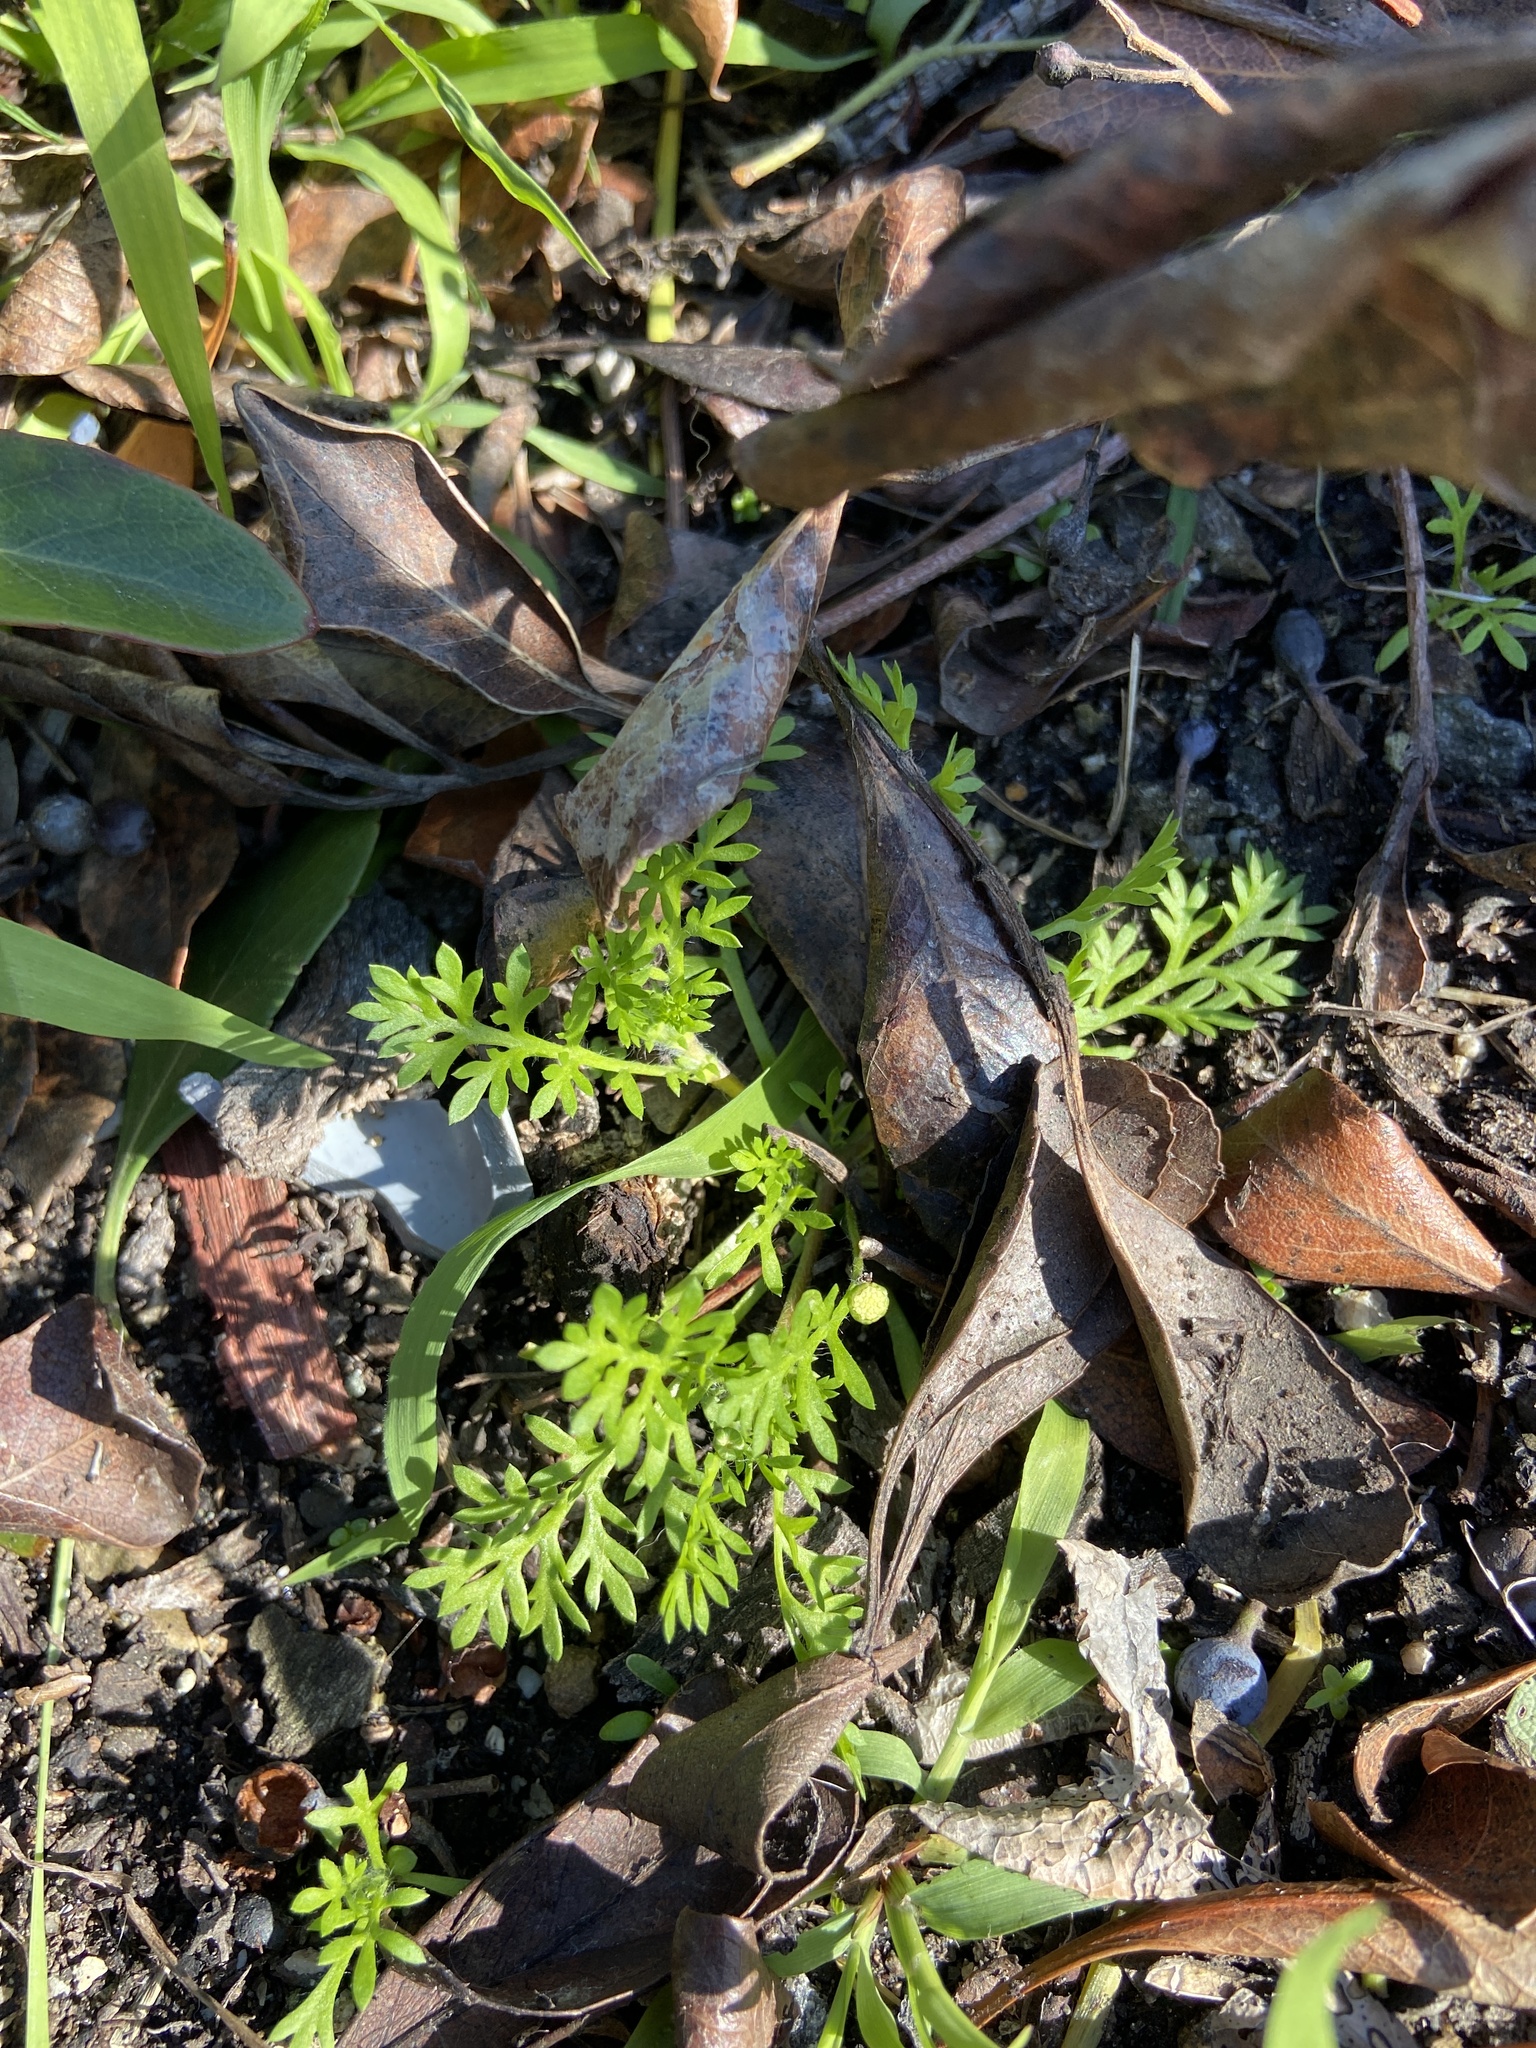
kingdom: Plantae
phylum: Tracheophyta
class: Magnoliopsida
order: Asterales
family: Asteraceae
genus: Cotula
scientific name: Cotula australis
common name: Australian waterbuttons
